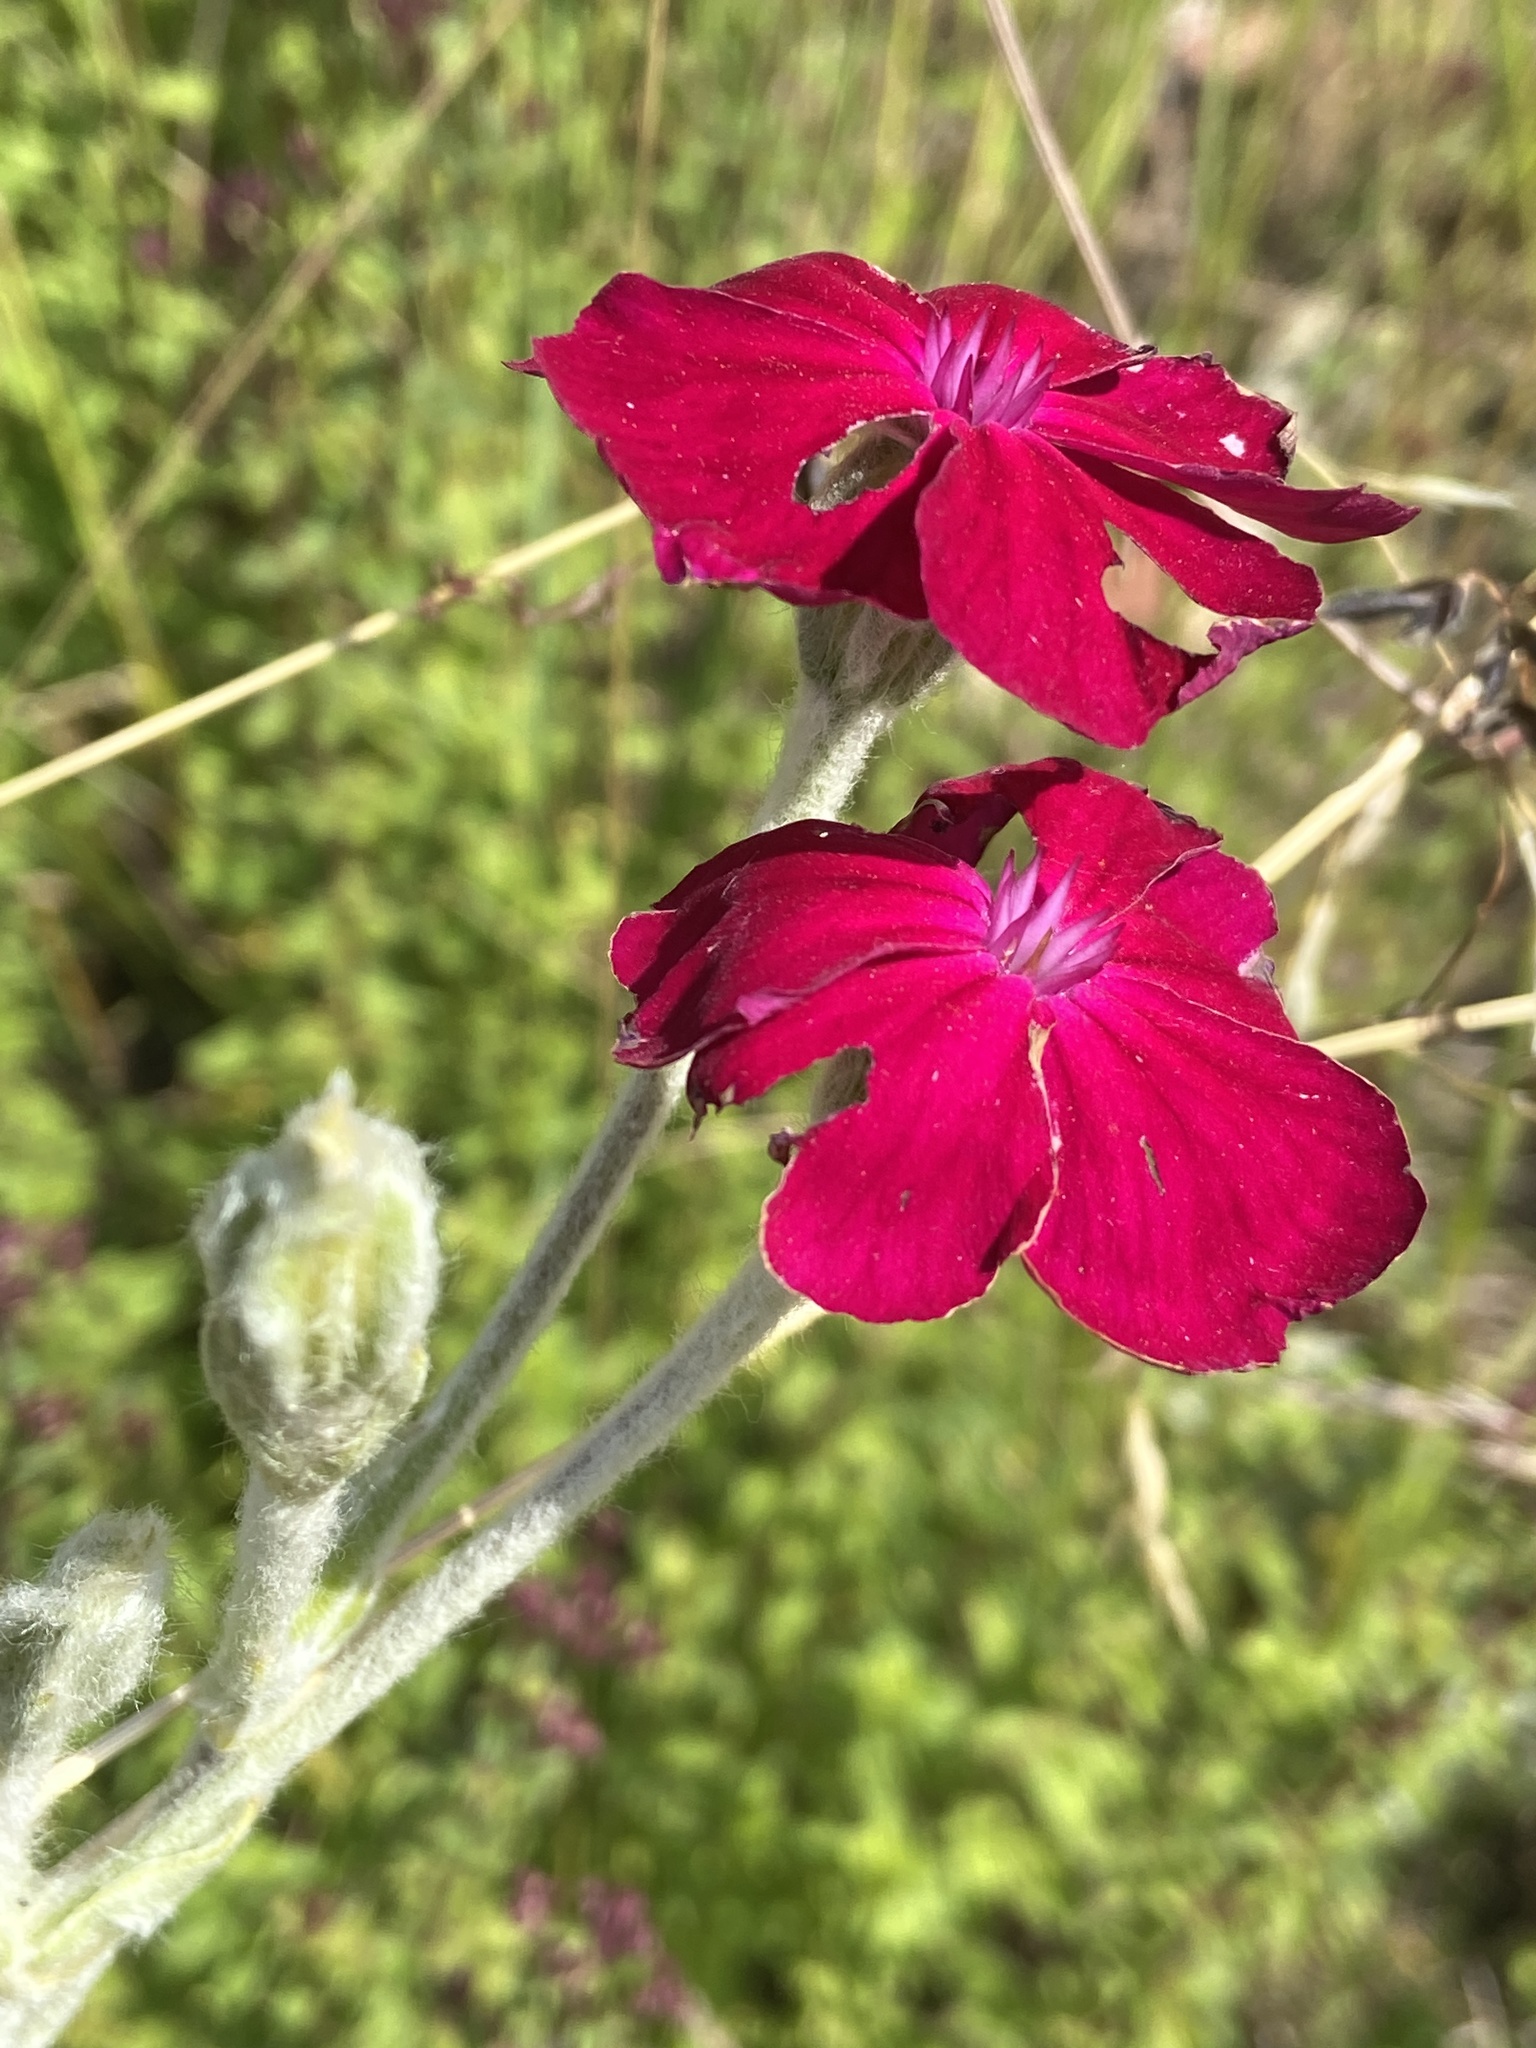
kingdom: Plantae
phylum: Tracheophyta
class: Magnoliopsida
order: Caryophyllales
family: Caryophyllaceae
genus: Silene
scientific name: Silene coronaria
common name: Rose campion
